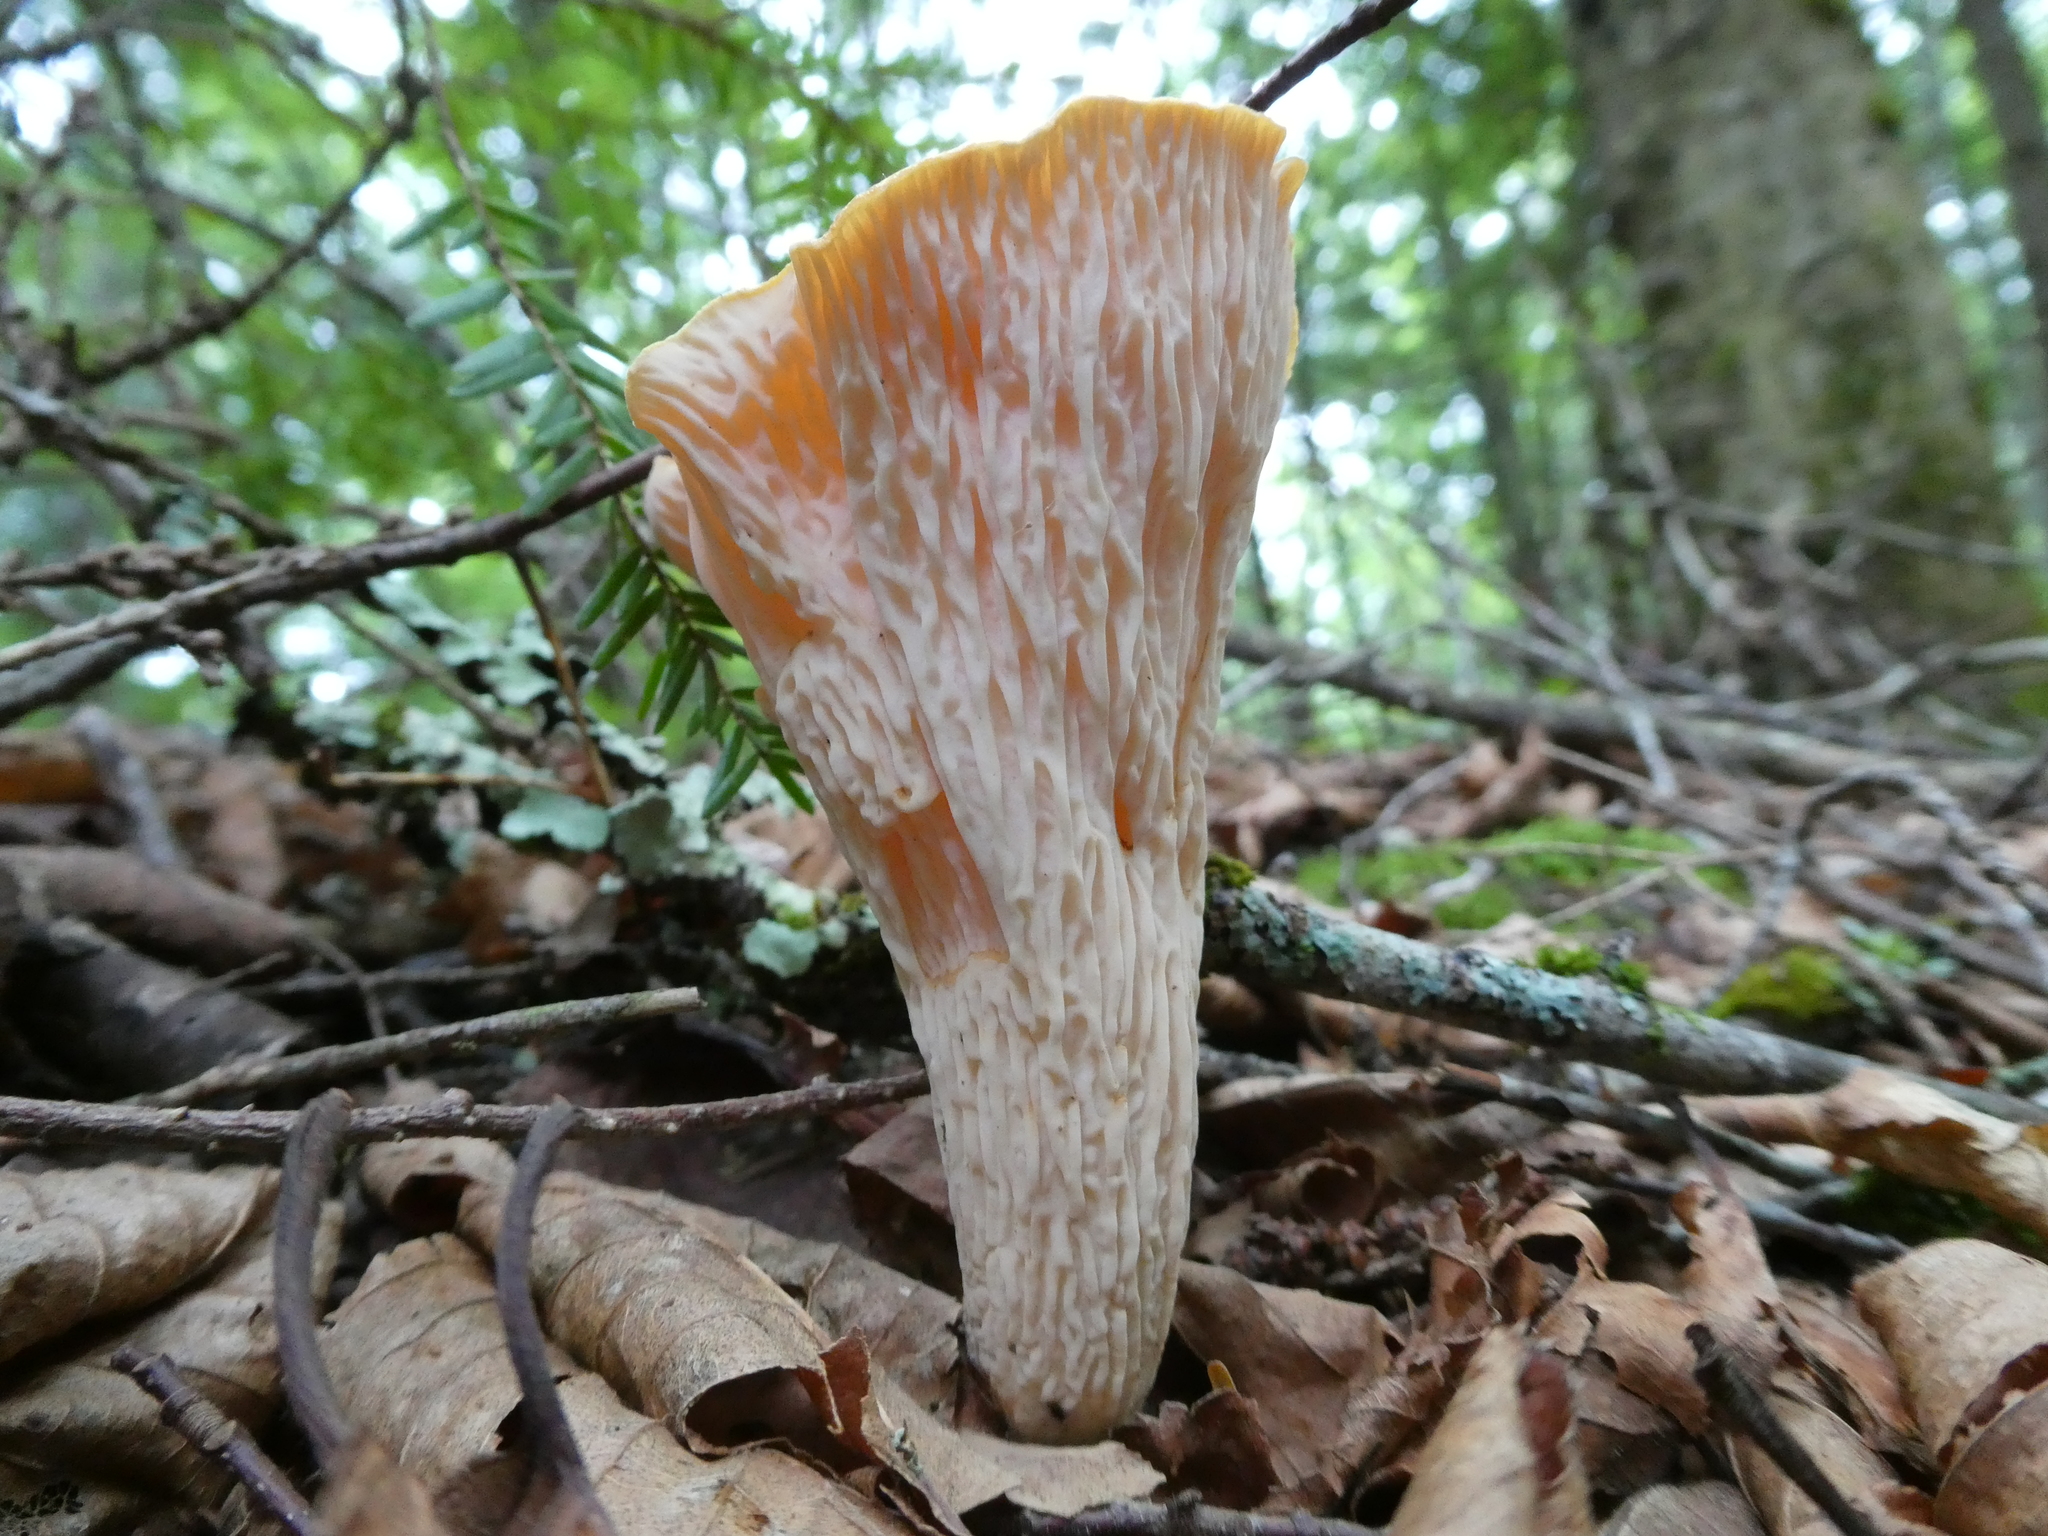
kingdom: Fungi
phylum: Basidiomycota
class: Agaricomycetes
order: Gomphales
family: Gomphaceae
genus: Turbinellus
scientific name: Turbinellus floccosus
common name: Scaly chanterelle
